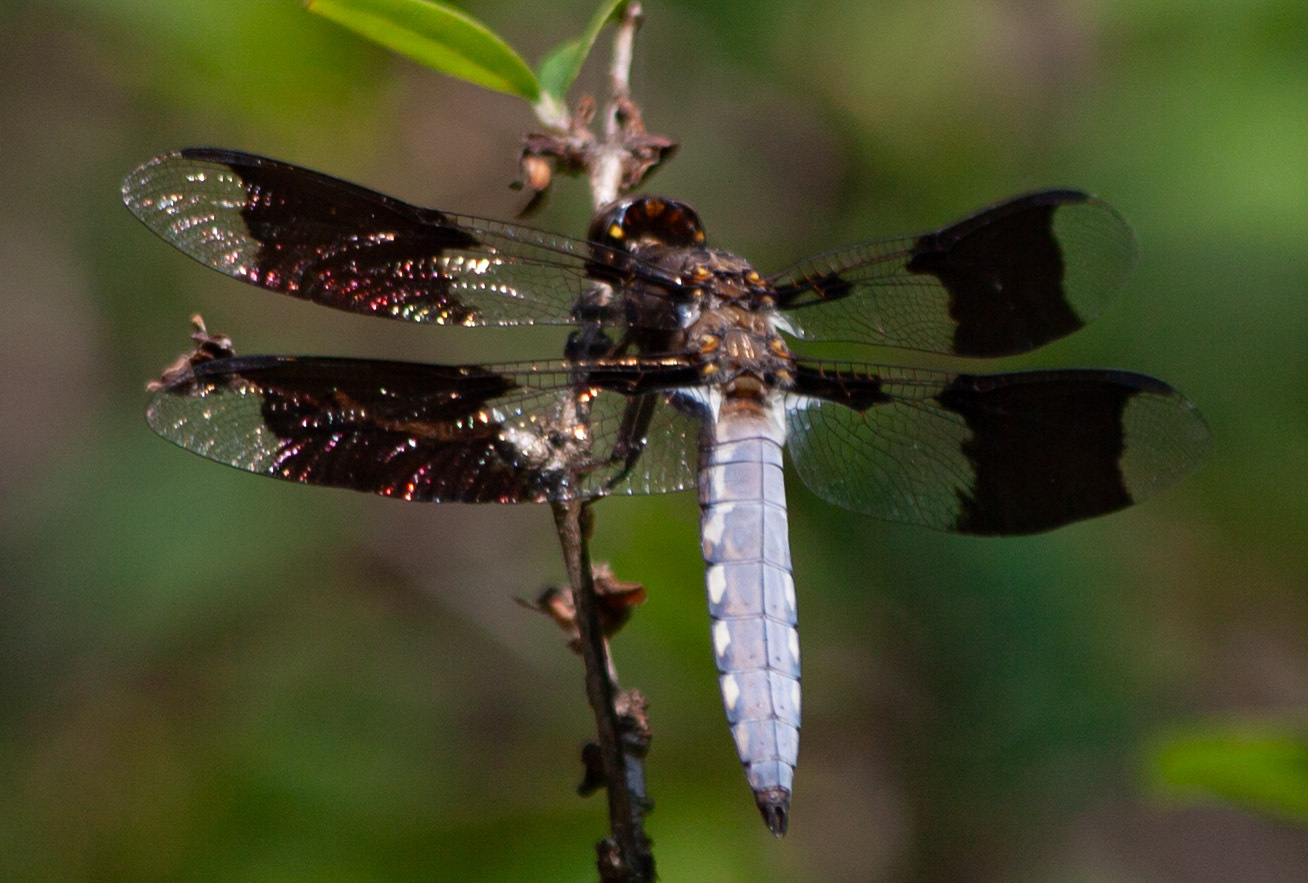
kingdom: Animalia
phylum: Arthropoda
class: Insecta
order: Odonata
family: Libellulidae
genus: Plathemis
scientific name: Plathemis lydia
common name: Common whitetail
